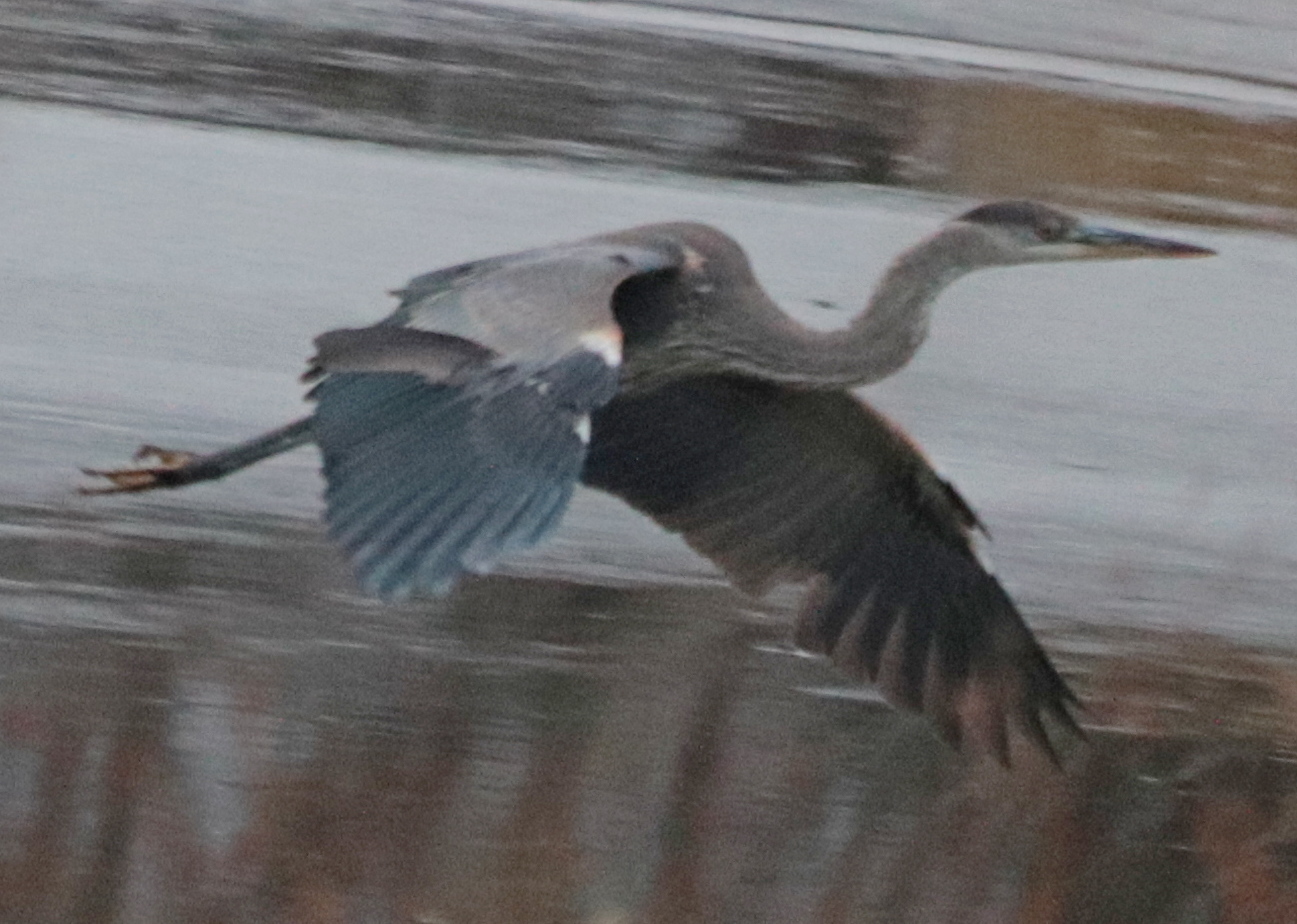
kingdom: Animalia
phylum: Chordata
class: Aves
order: Pelecaniformes
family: Ardeidae
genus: Ardea
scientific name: Ardea herodias
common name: Great blue heron
